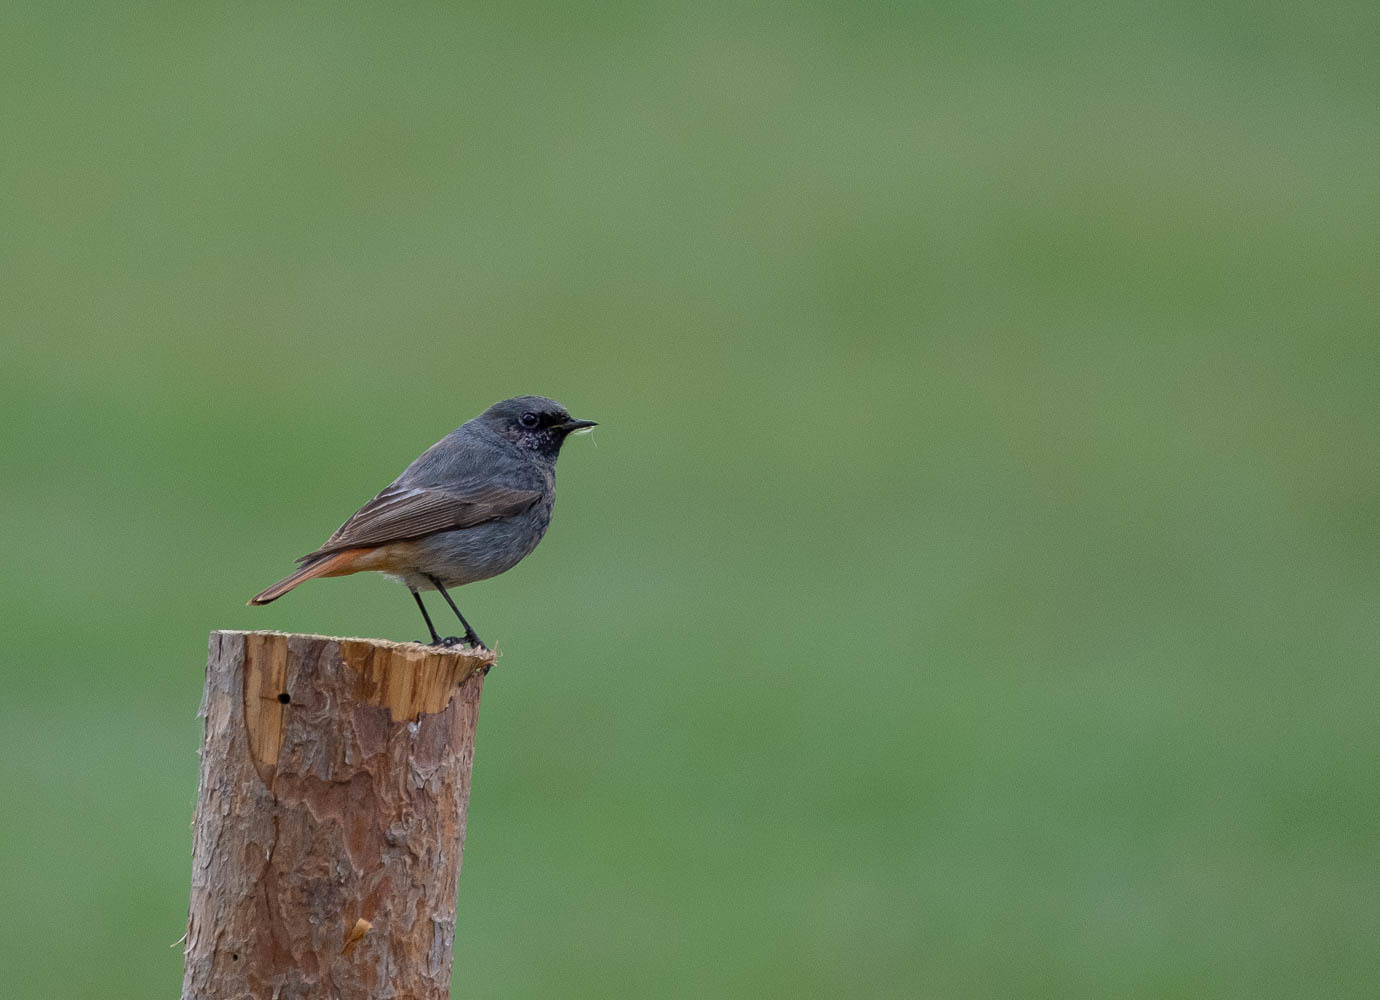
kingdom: Animalia
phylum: Chordata
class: Aves
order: Passeriformes
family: Muscicapidae
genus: Phoenicurus
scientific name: Phoenicurus ochruros
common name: Black redstart
